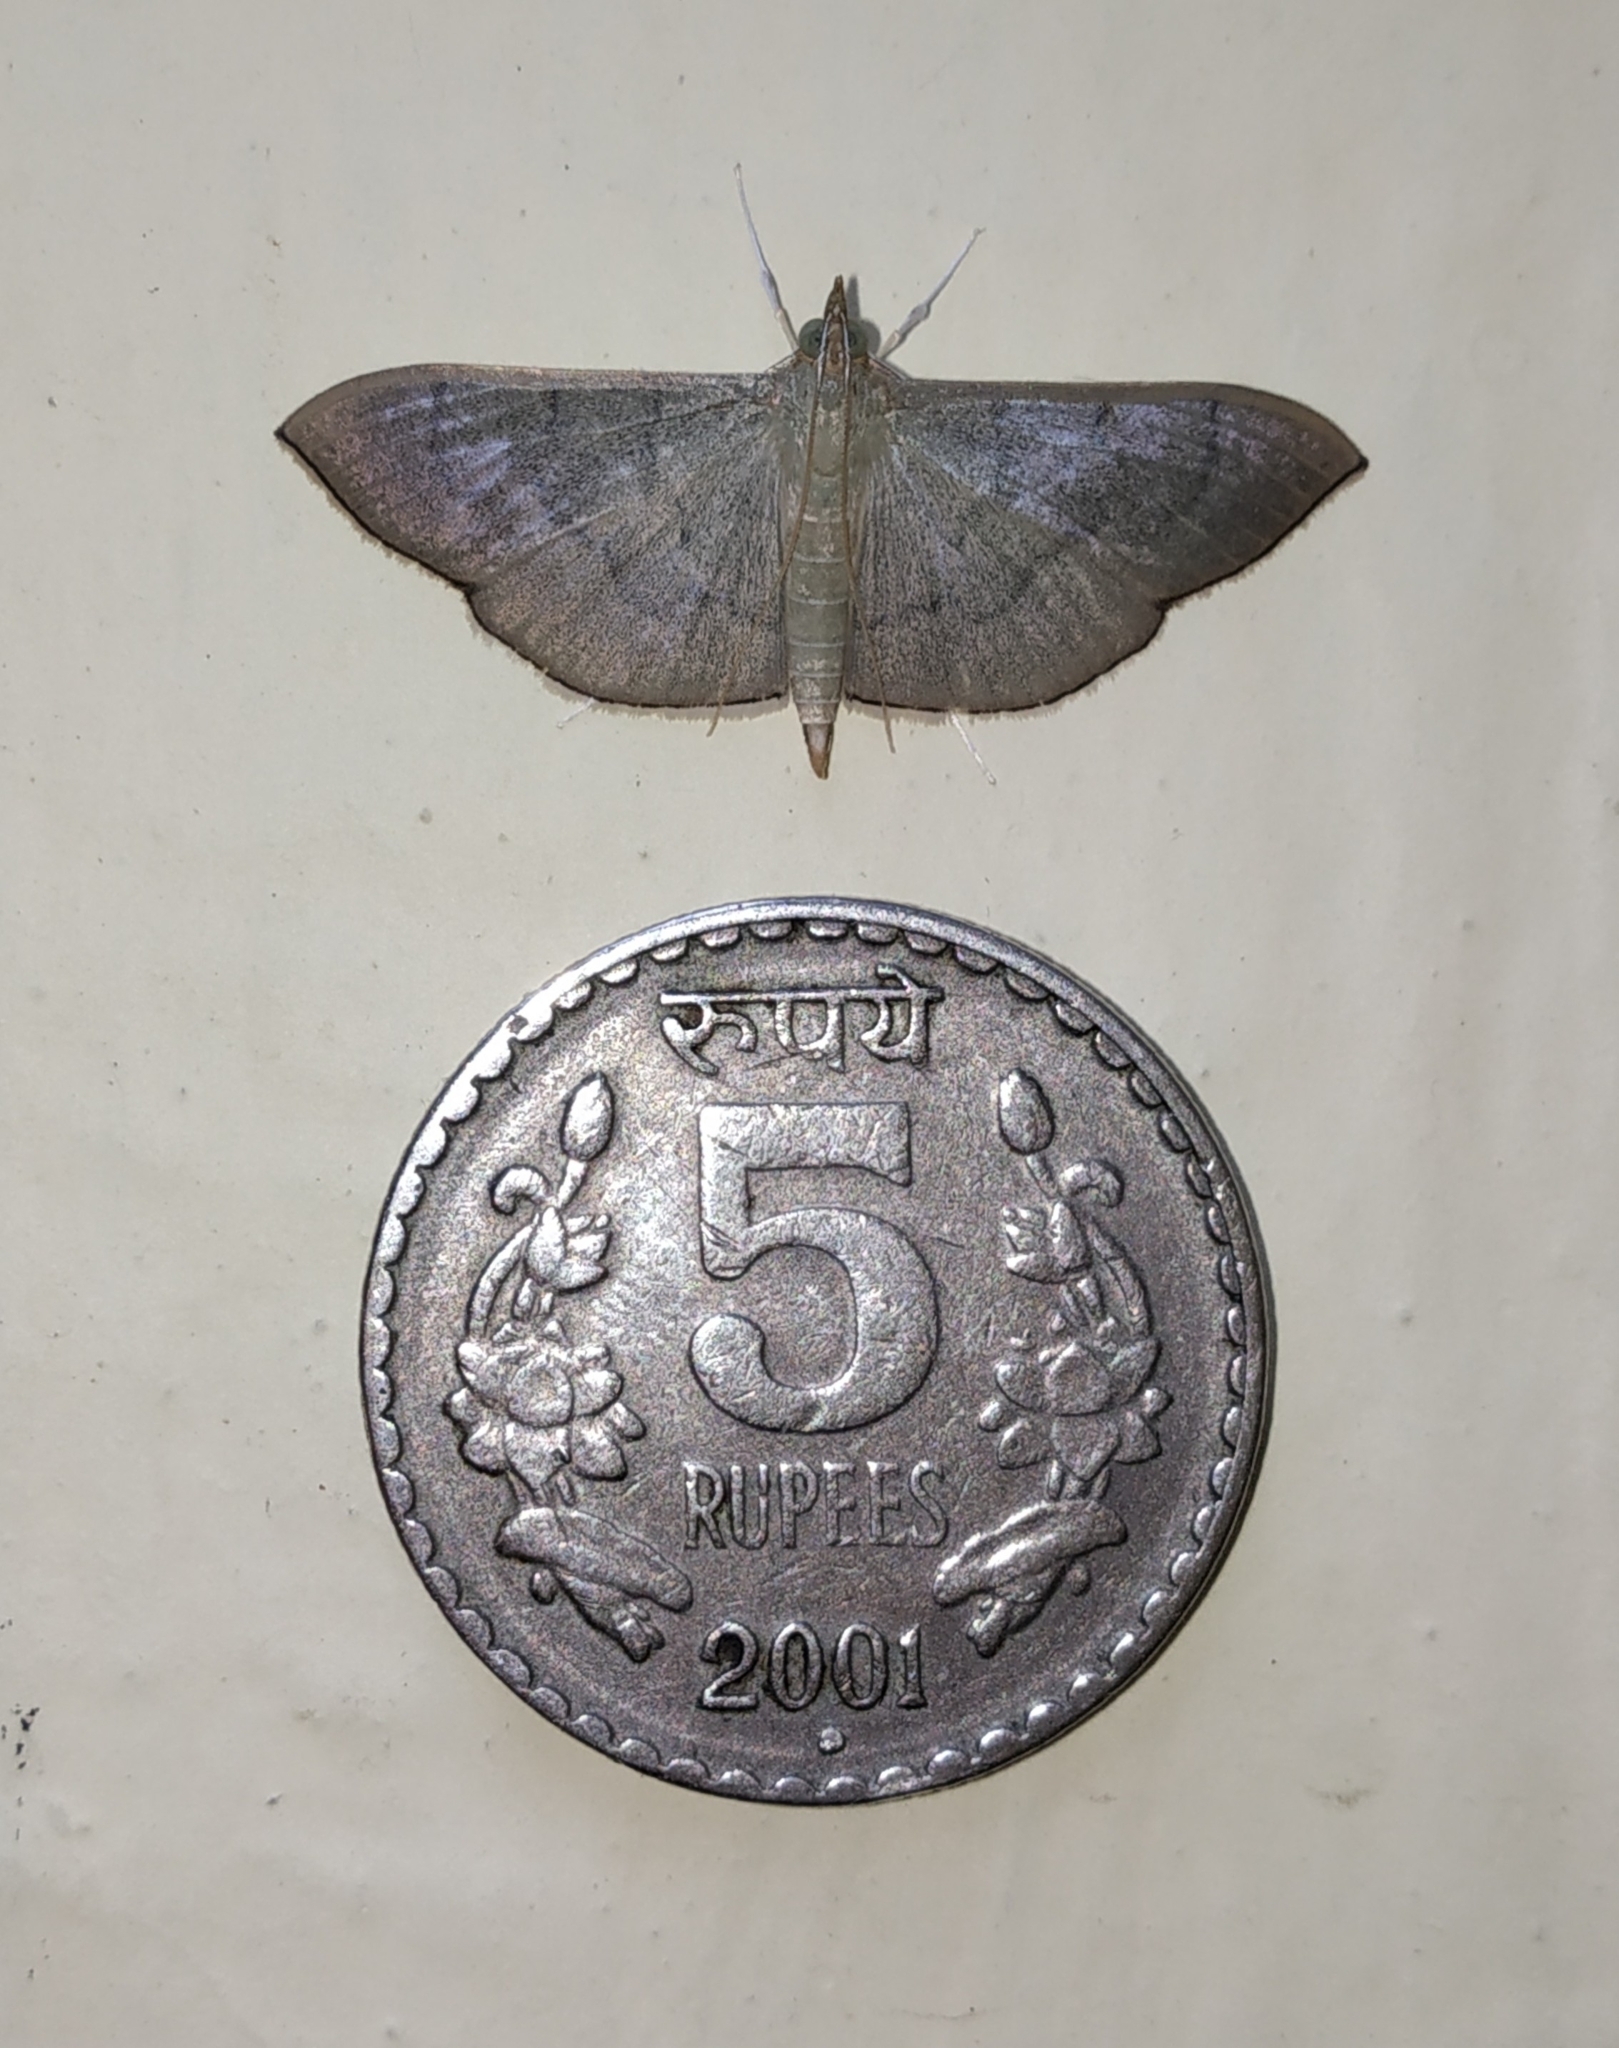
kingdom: Animalia
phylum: Arthropoda
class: Insecta
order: Lepidoptera
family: Crambidae
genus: Lamprophaia
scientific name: Lamprophaia ablactalis
